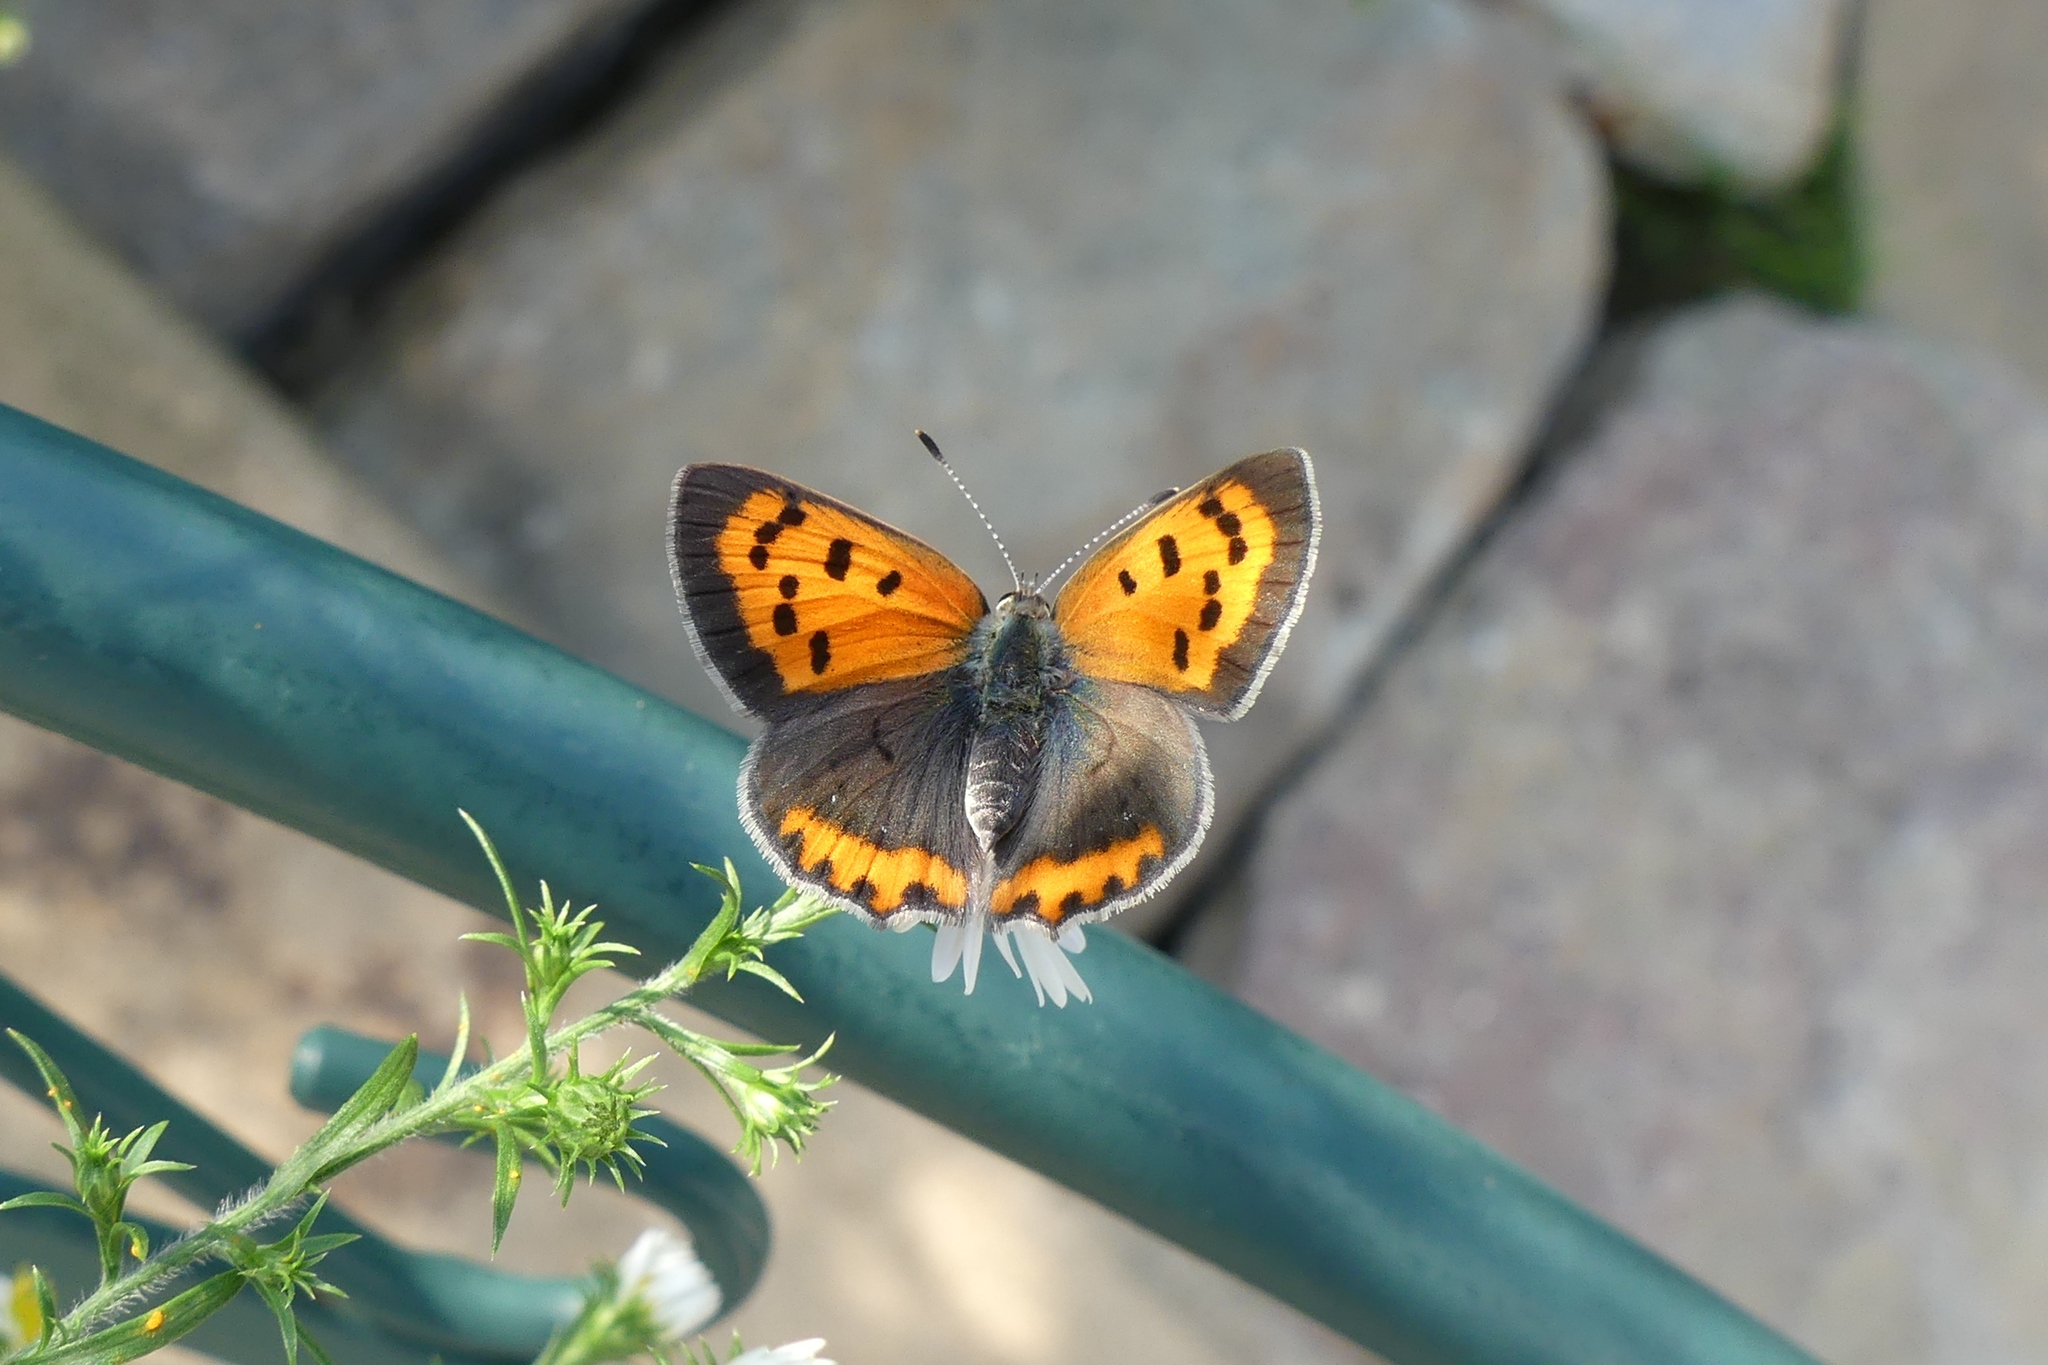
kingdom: Animalia
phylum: Arthropoda
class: Insecta
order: Lepidoptera
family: Lycaenidae
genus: Lycaena
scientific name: Lycaena hypophlaeas
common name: American copper
